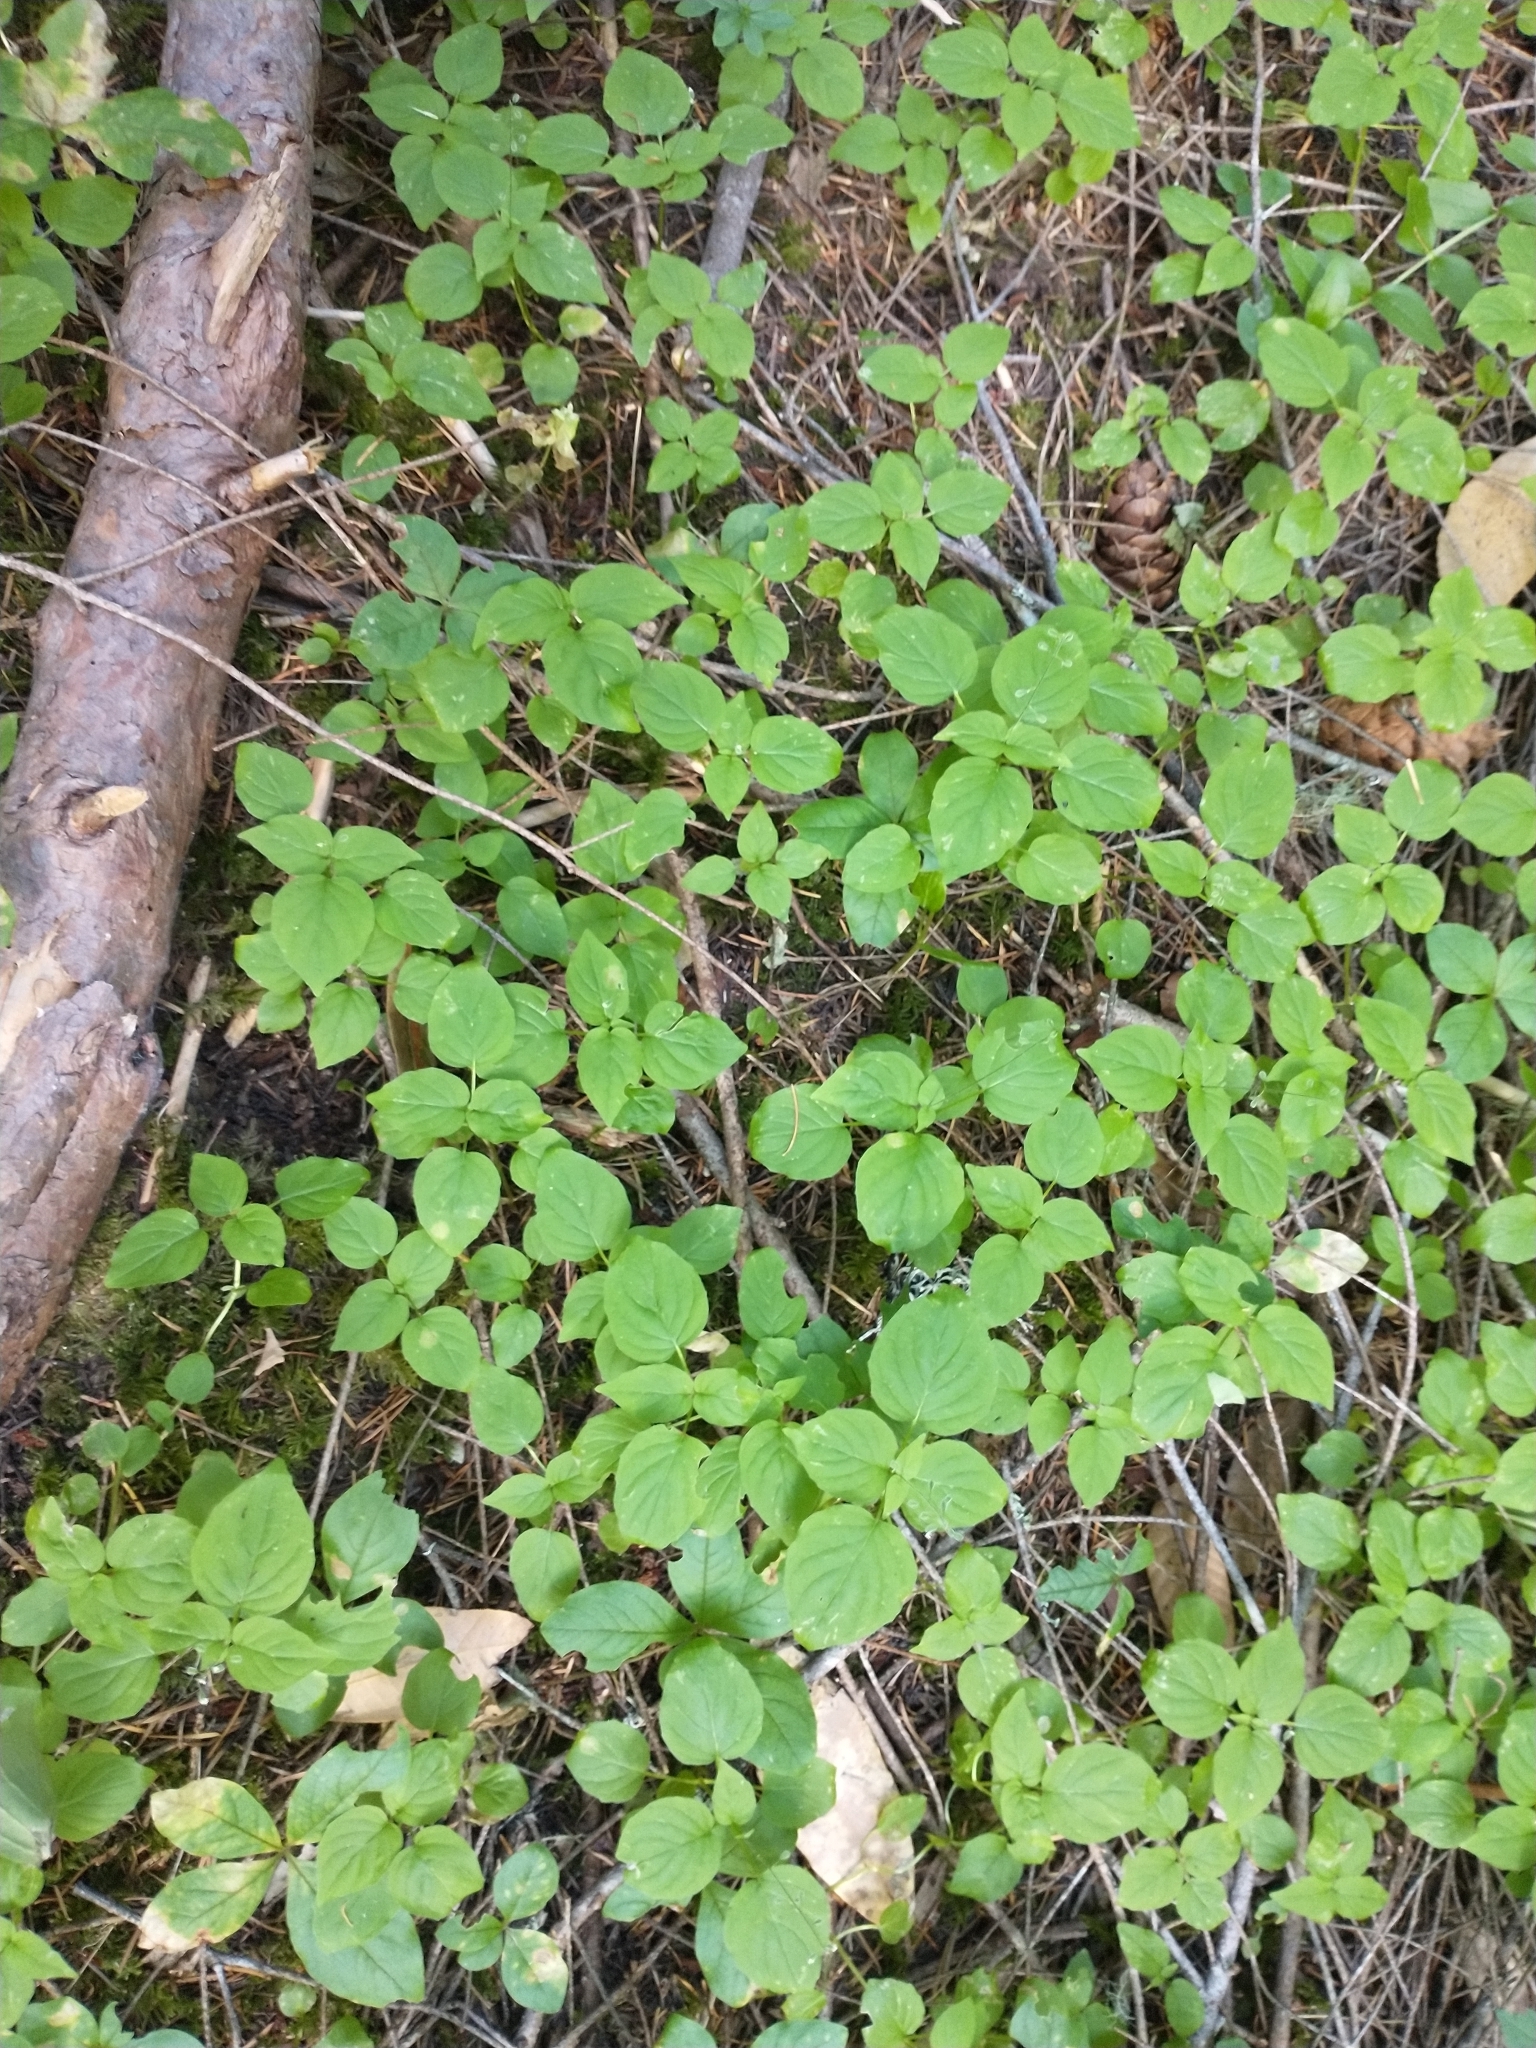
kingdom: Plantae
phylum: Tracheophyta
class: Magnoliopsida
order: Myrtales
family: Onagraceae
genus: Circaea
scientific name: Circaea alpina
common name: Alpine enchanter's-nightshade
